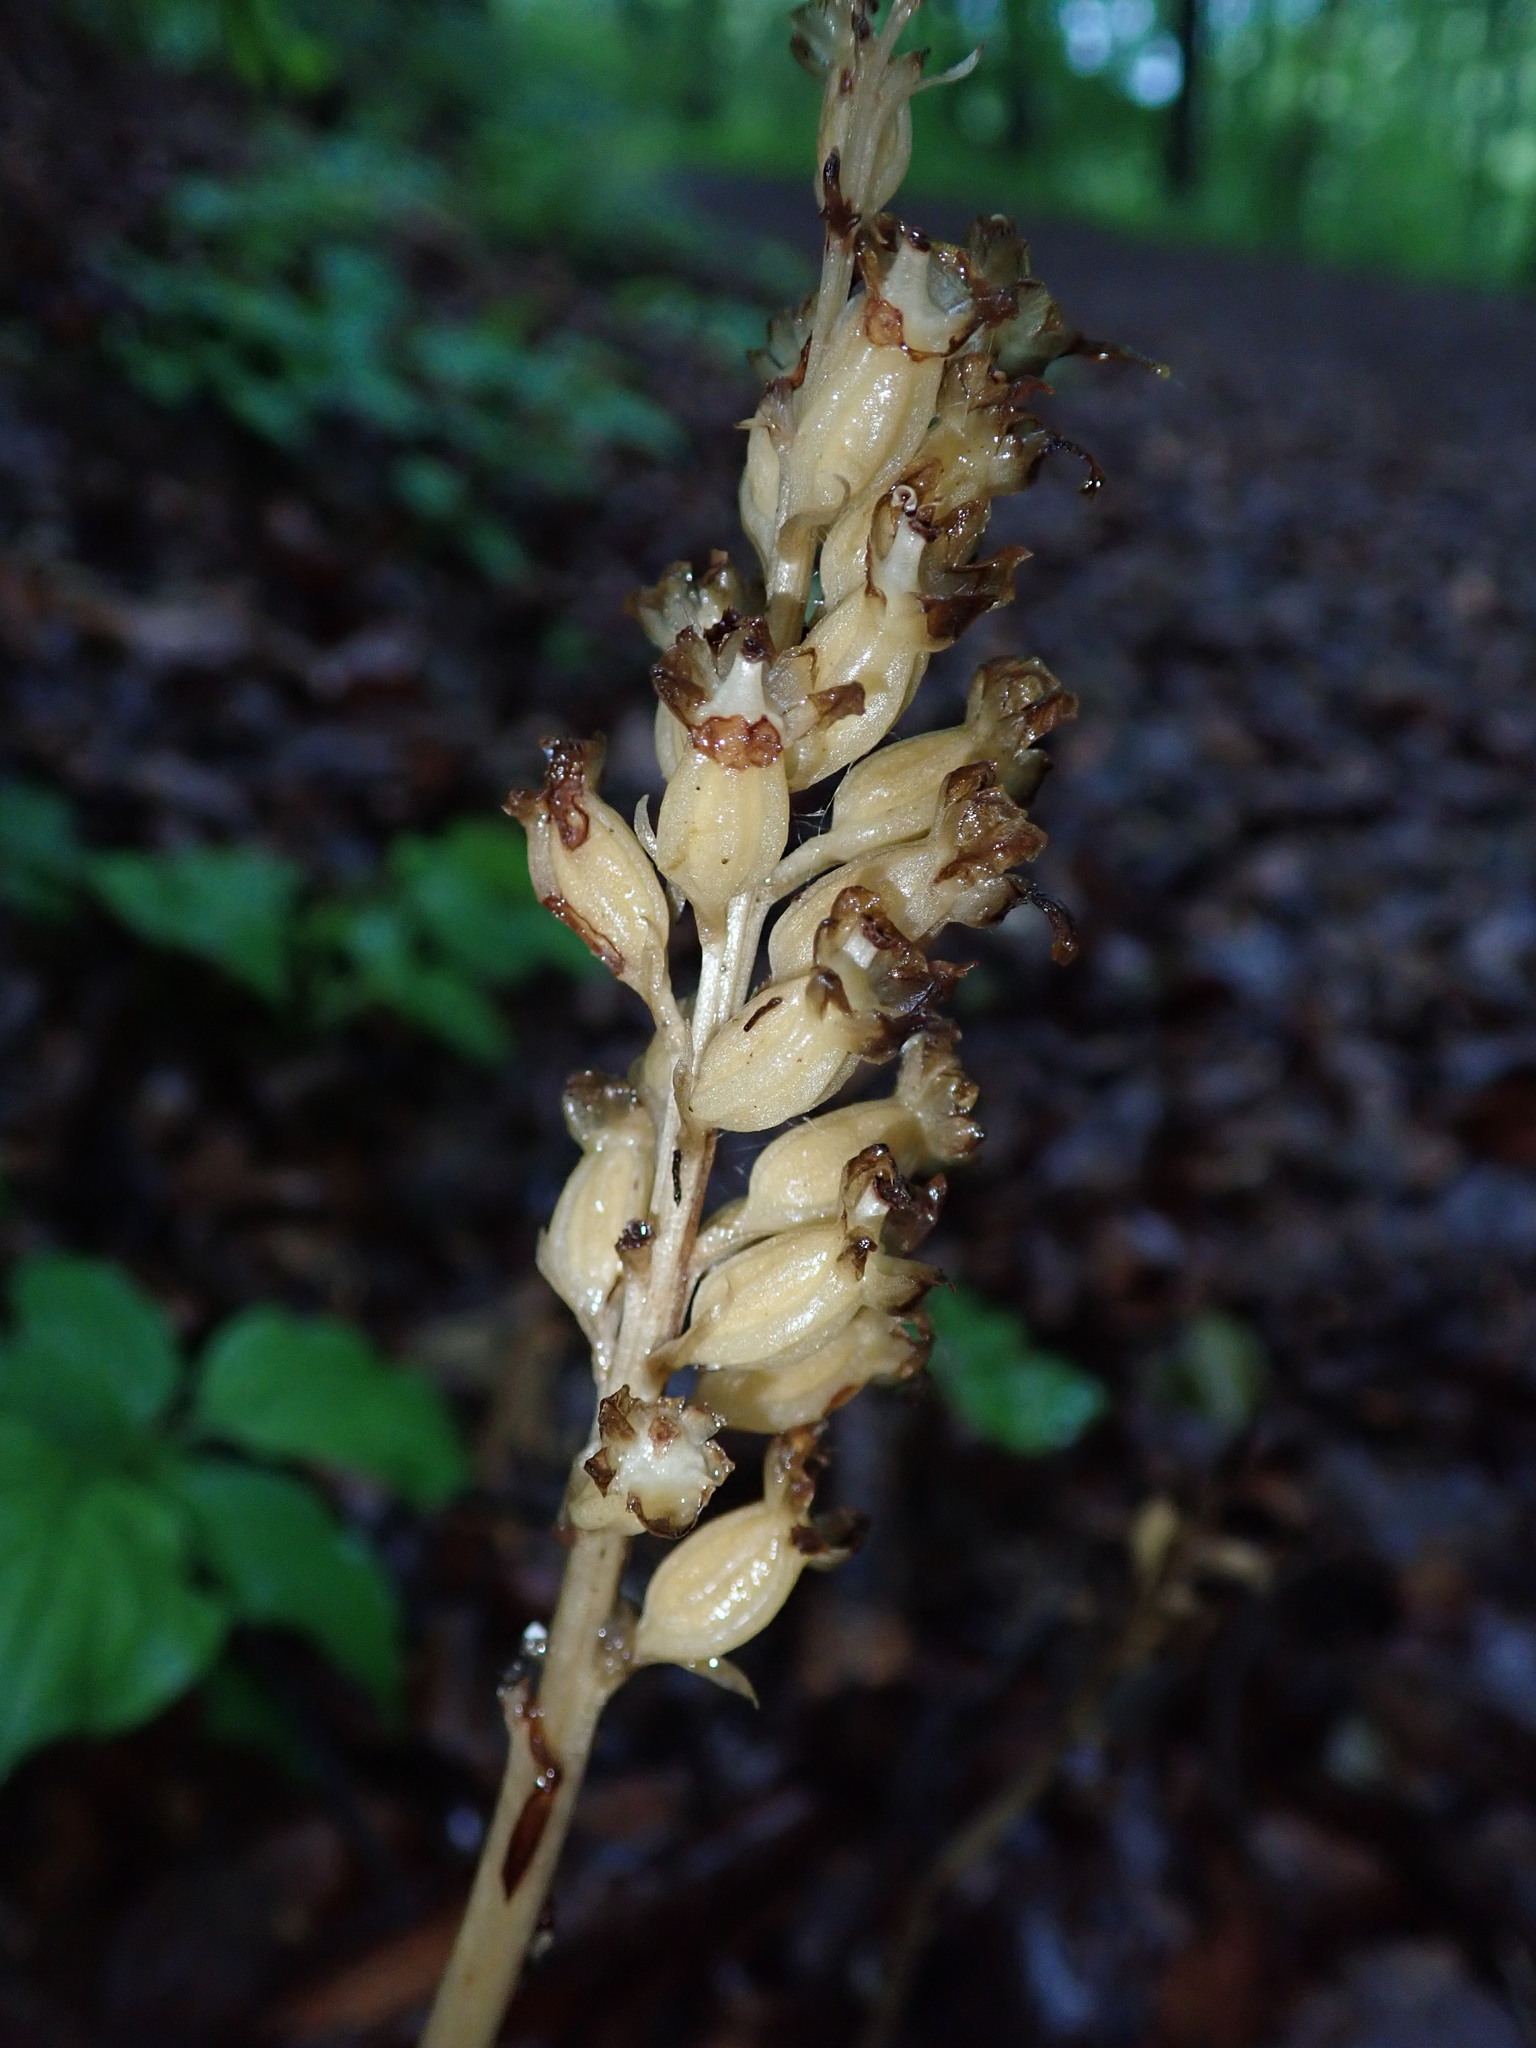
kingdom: Plantae
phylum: Tracheophyta
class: Liliopsida
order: Asparagales
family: Orchidaceae
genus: Neottia
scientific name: Neottia nidus-avis
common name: Bird's-nest orchid
